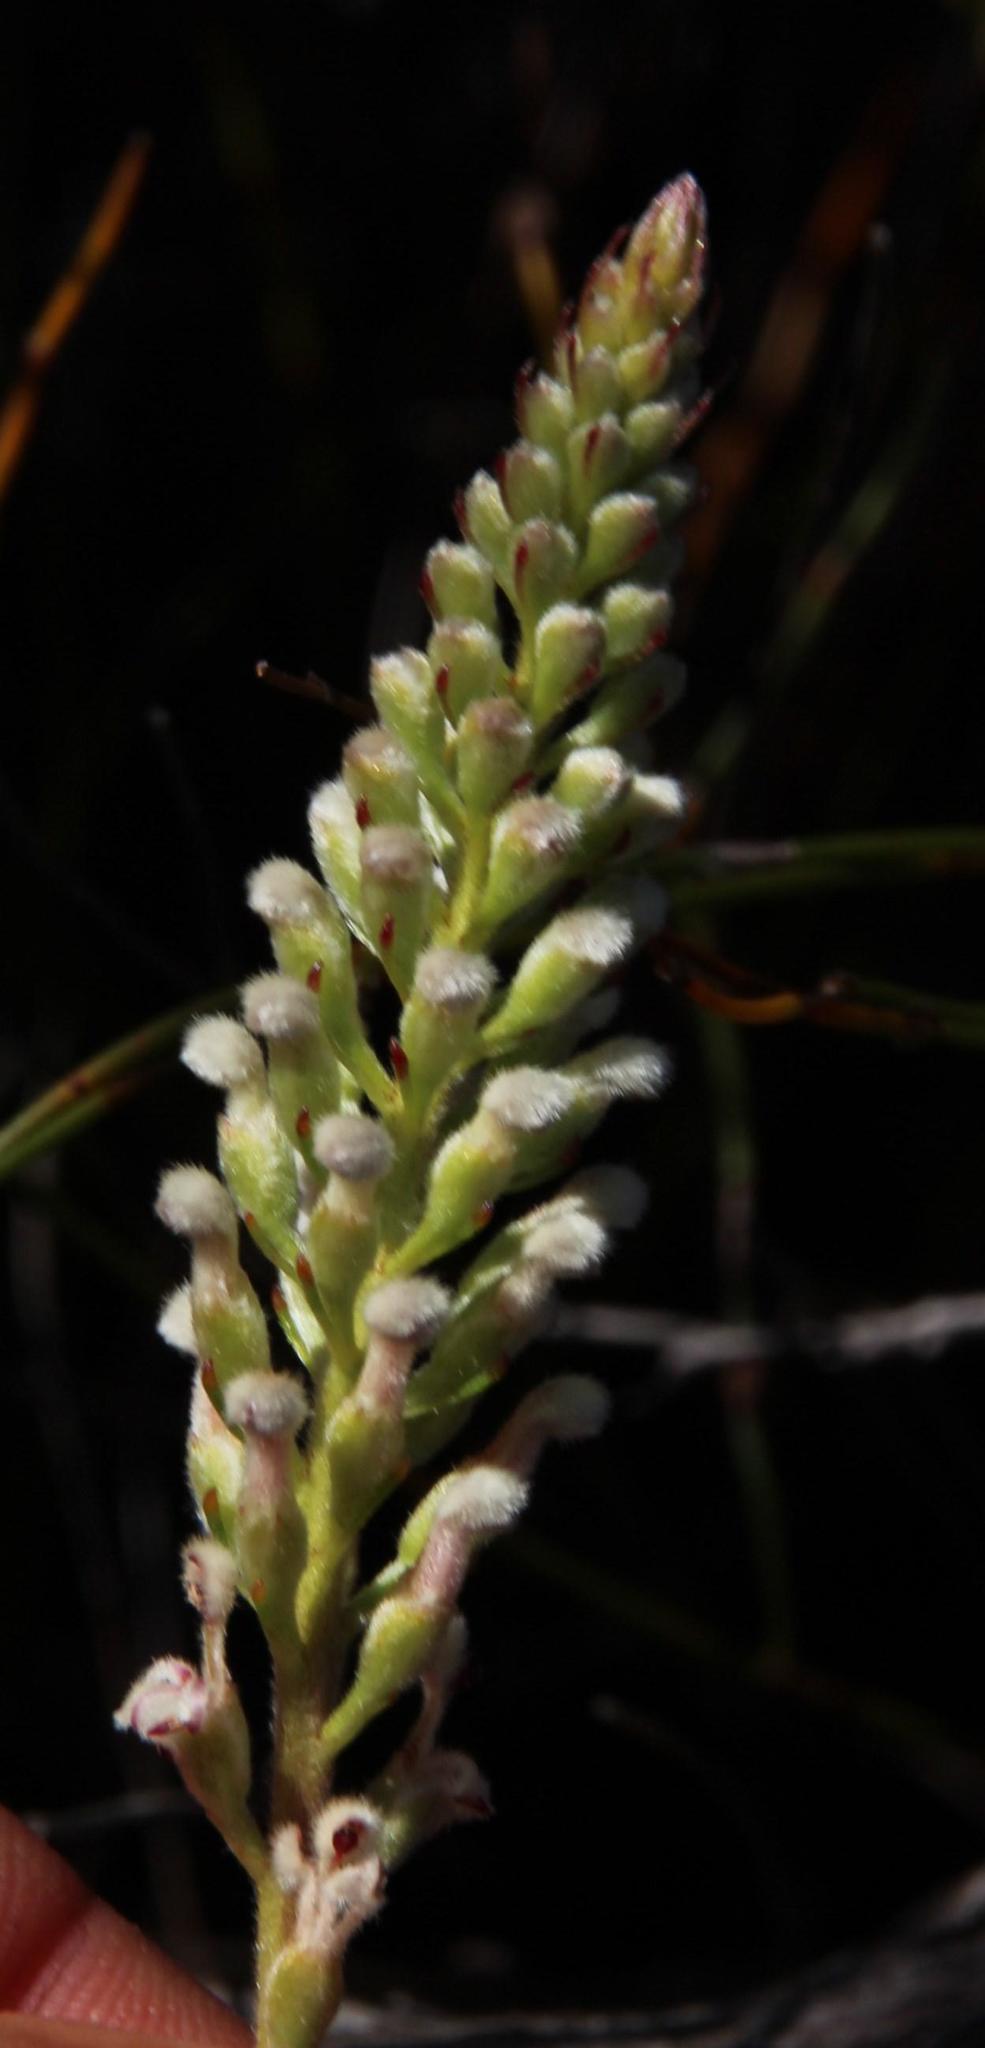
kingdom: Plantae
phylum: Tracheophyta
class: Magnoliopsida
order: Proteales
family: Proteaceae
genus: Spatalla
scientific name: Spatalla curvifolia
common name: White-stalked spoon
